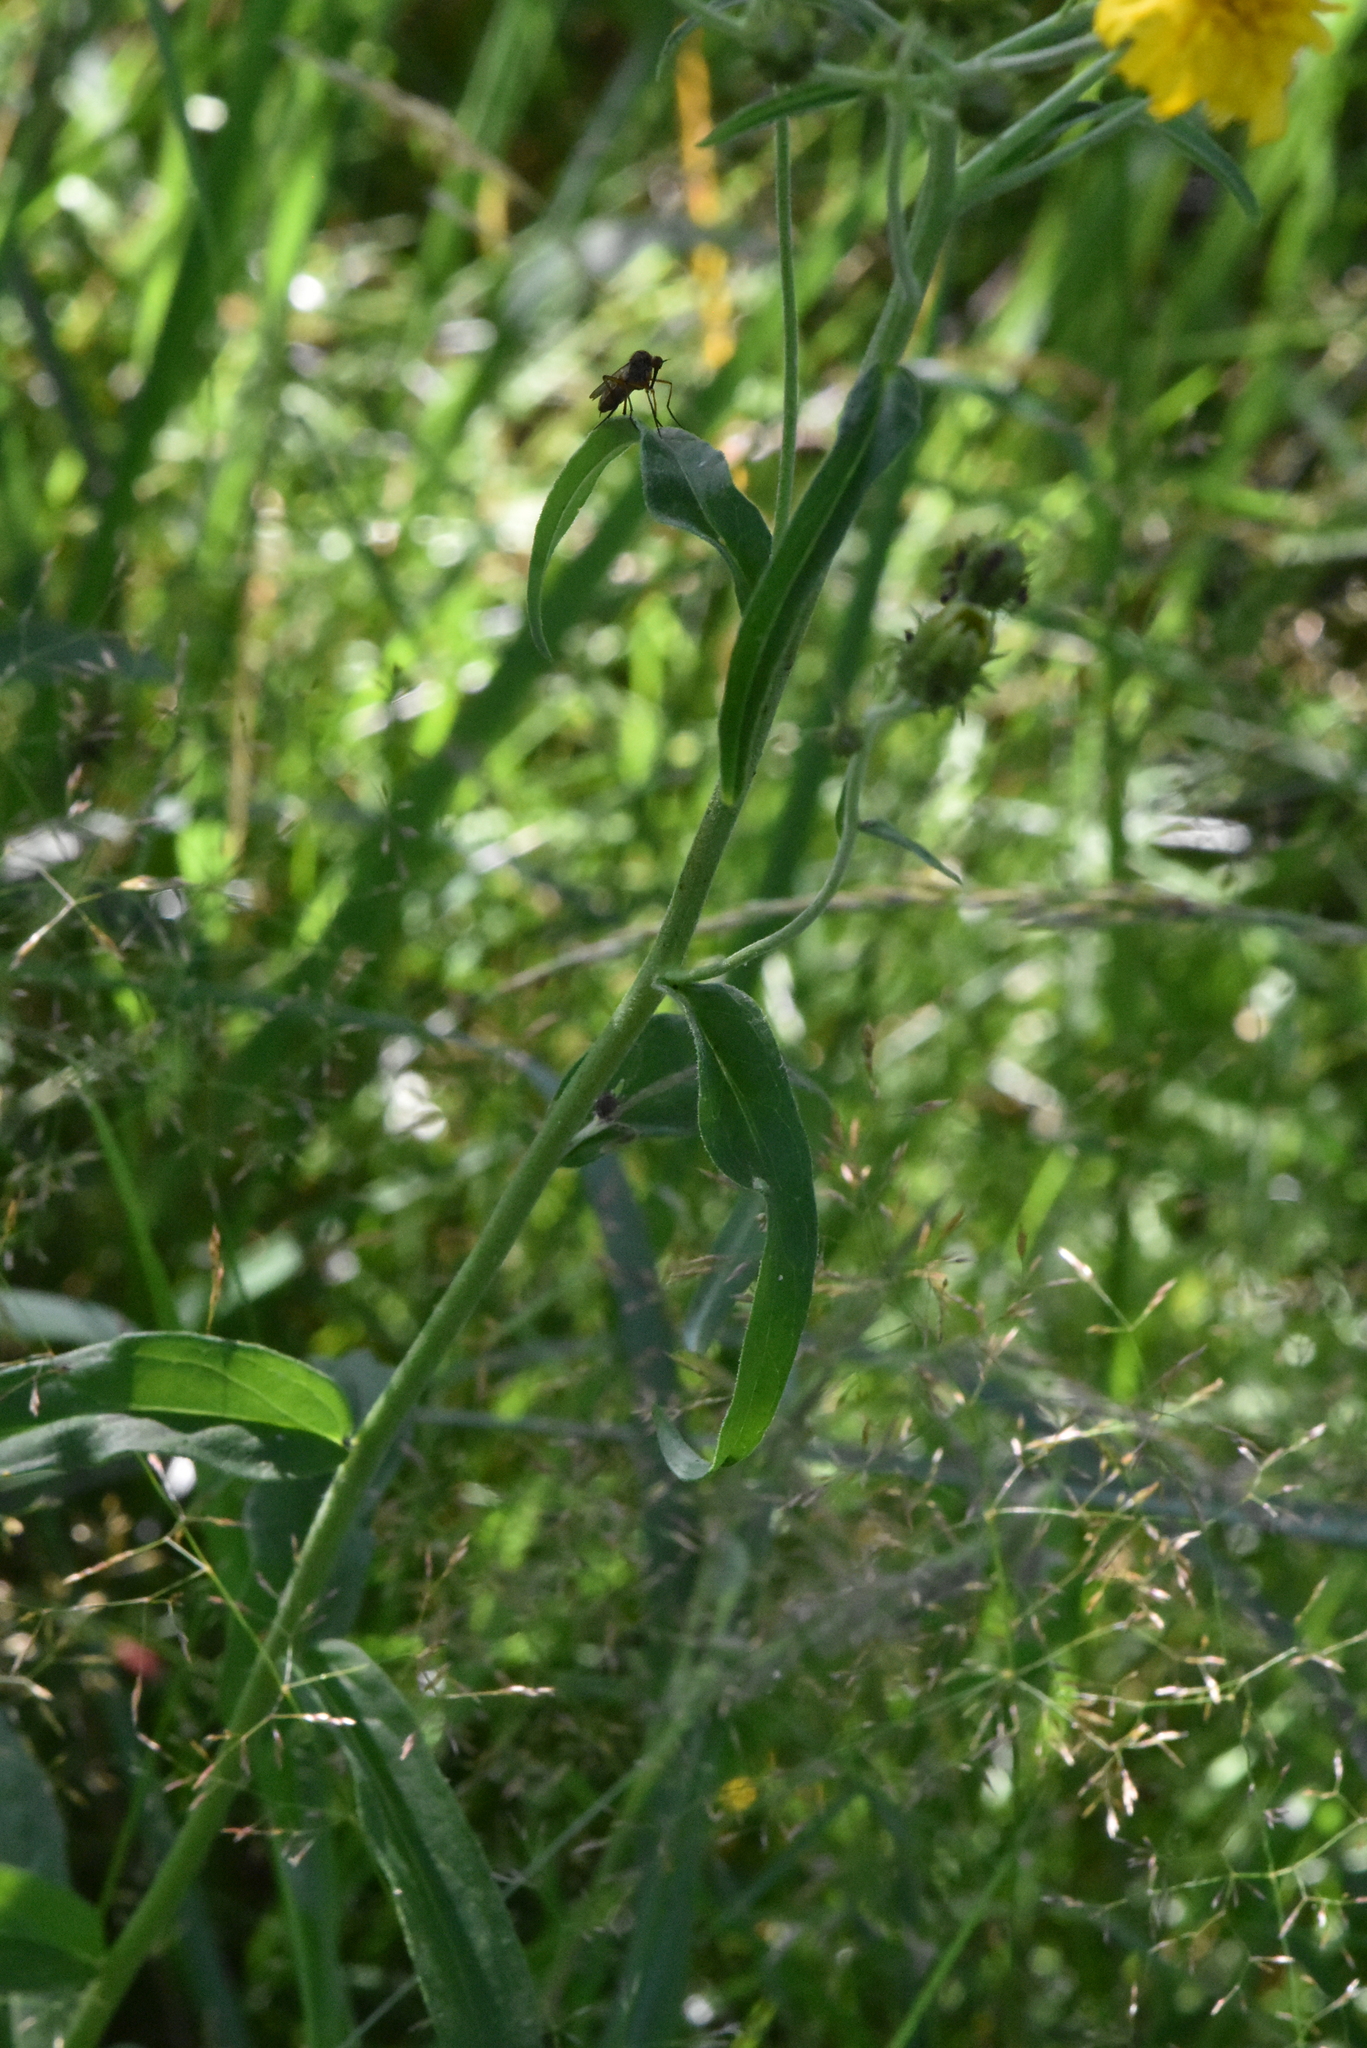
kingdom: Plantae
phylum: Tracheophyta
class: Magnoliopsida
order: Asterales
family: Asteraceae
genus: Hieracium
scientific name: Hieracium umbellatum
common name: Northern hawkweed
